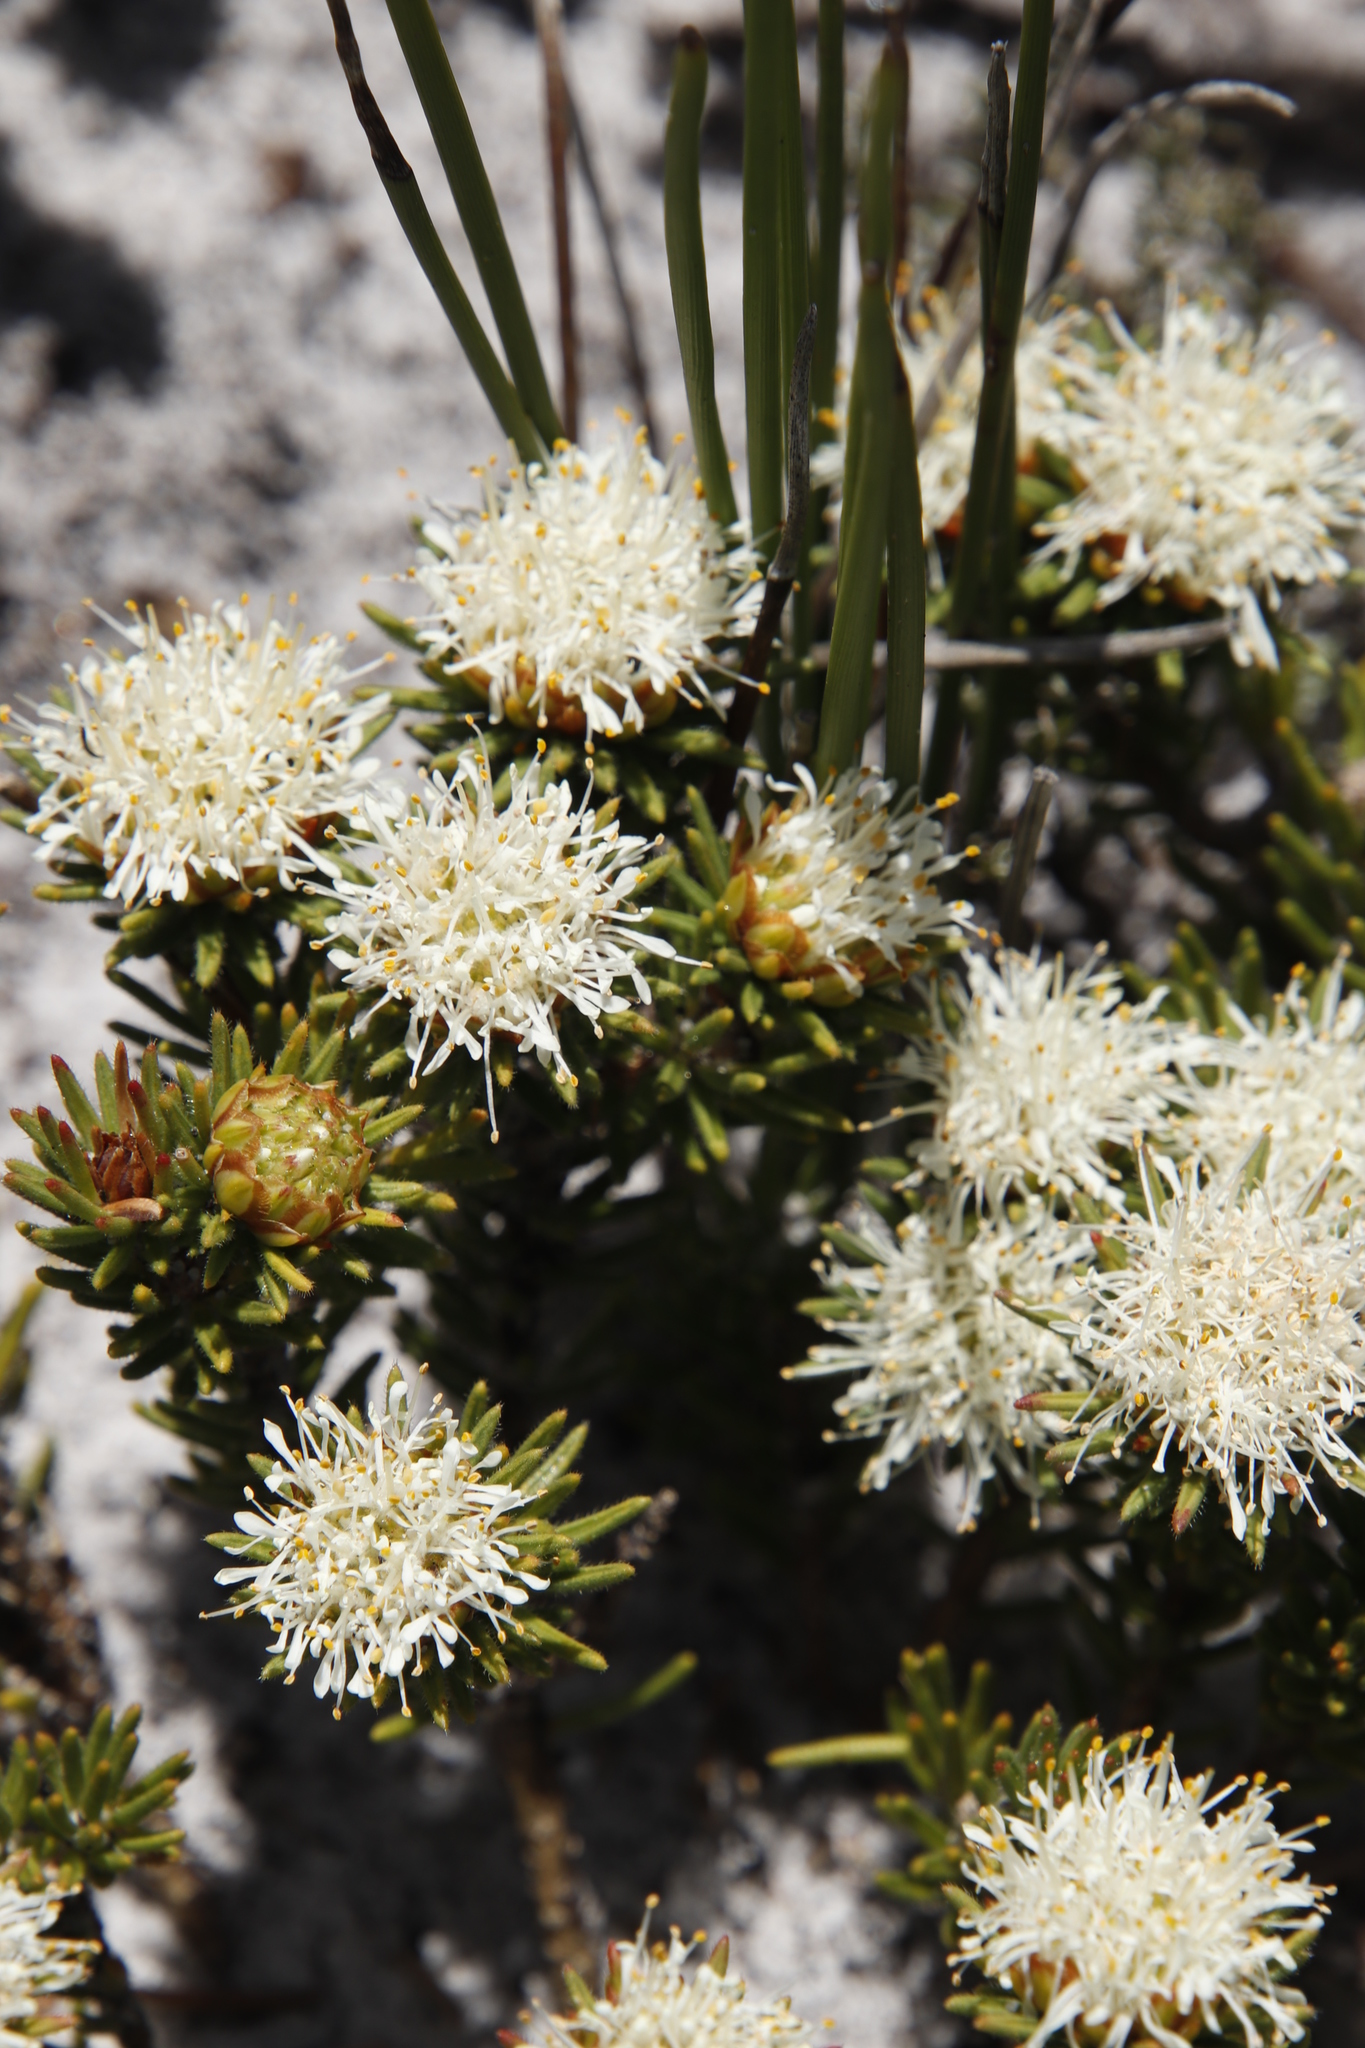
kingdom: Plantae
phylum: Tracheophyta
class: Magnoliopsida
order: Sapindales
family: Rutaceae
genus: Agathosma
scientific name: Agathosma hookeri
